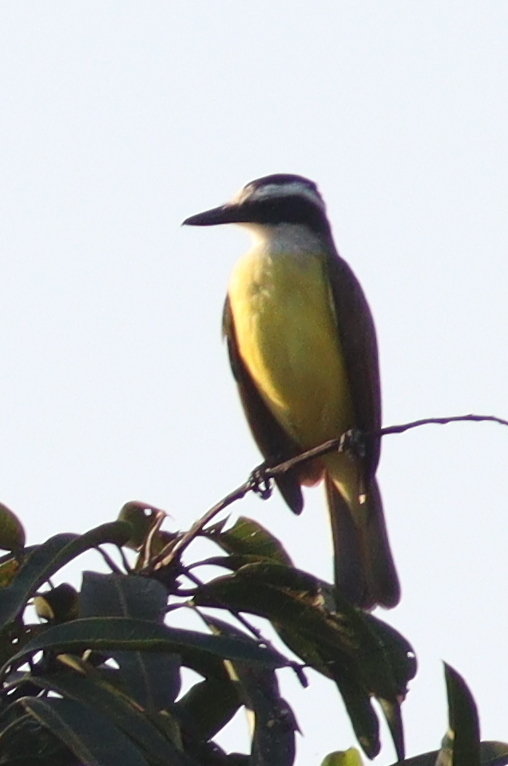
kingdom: Animalia
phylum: Chordata
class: Aves
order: Passeriformes
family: Tyrannidae
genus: Pitangus
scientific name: Pitangus sulphuratus
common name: Great kiskadee
